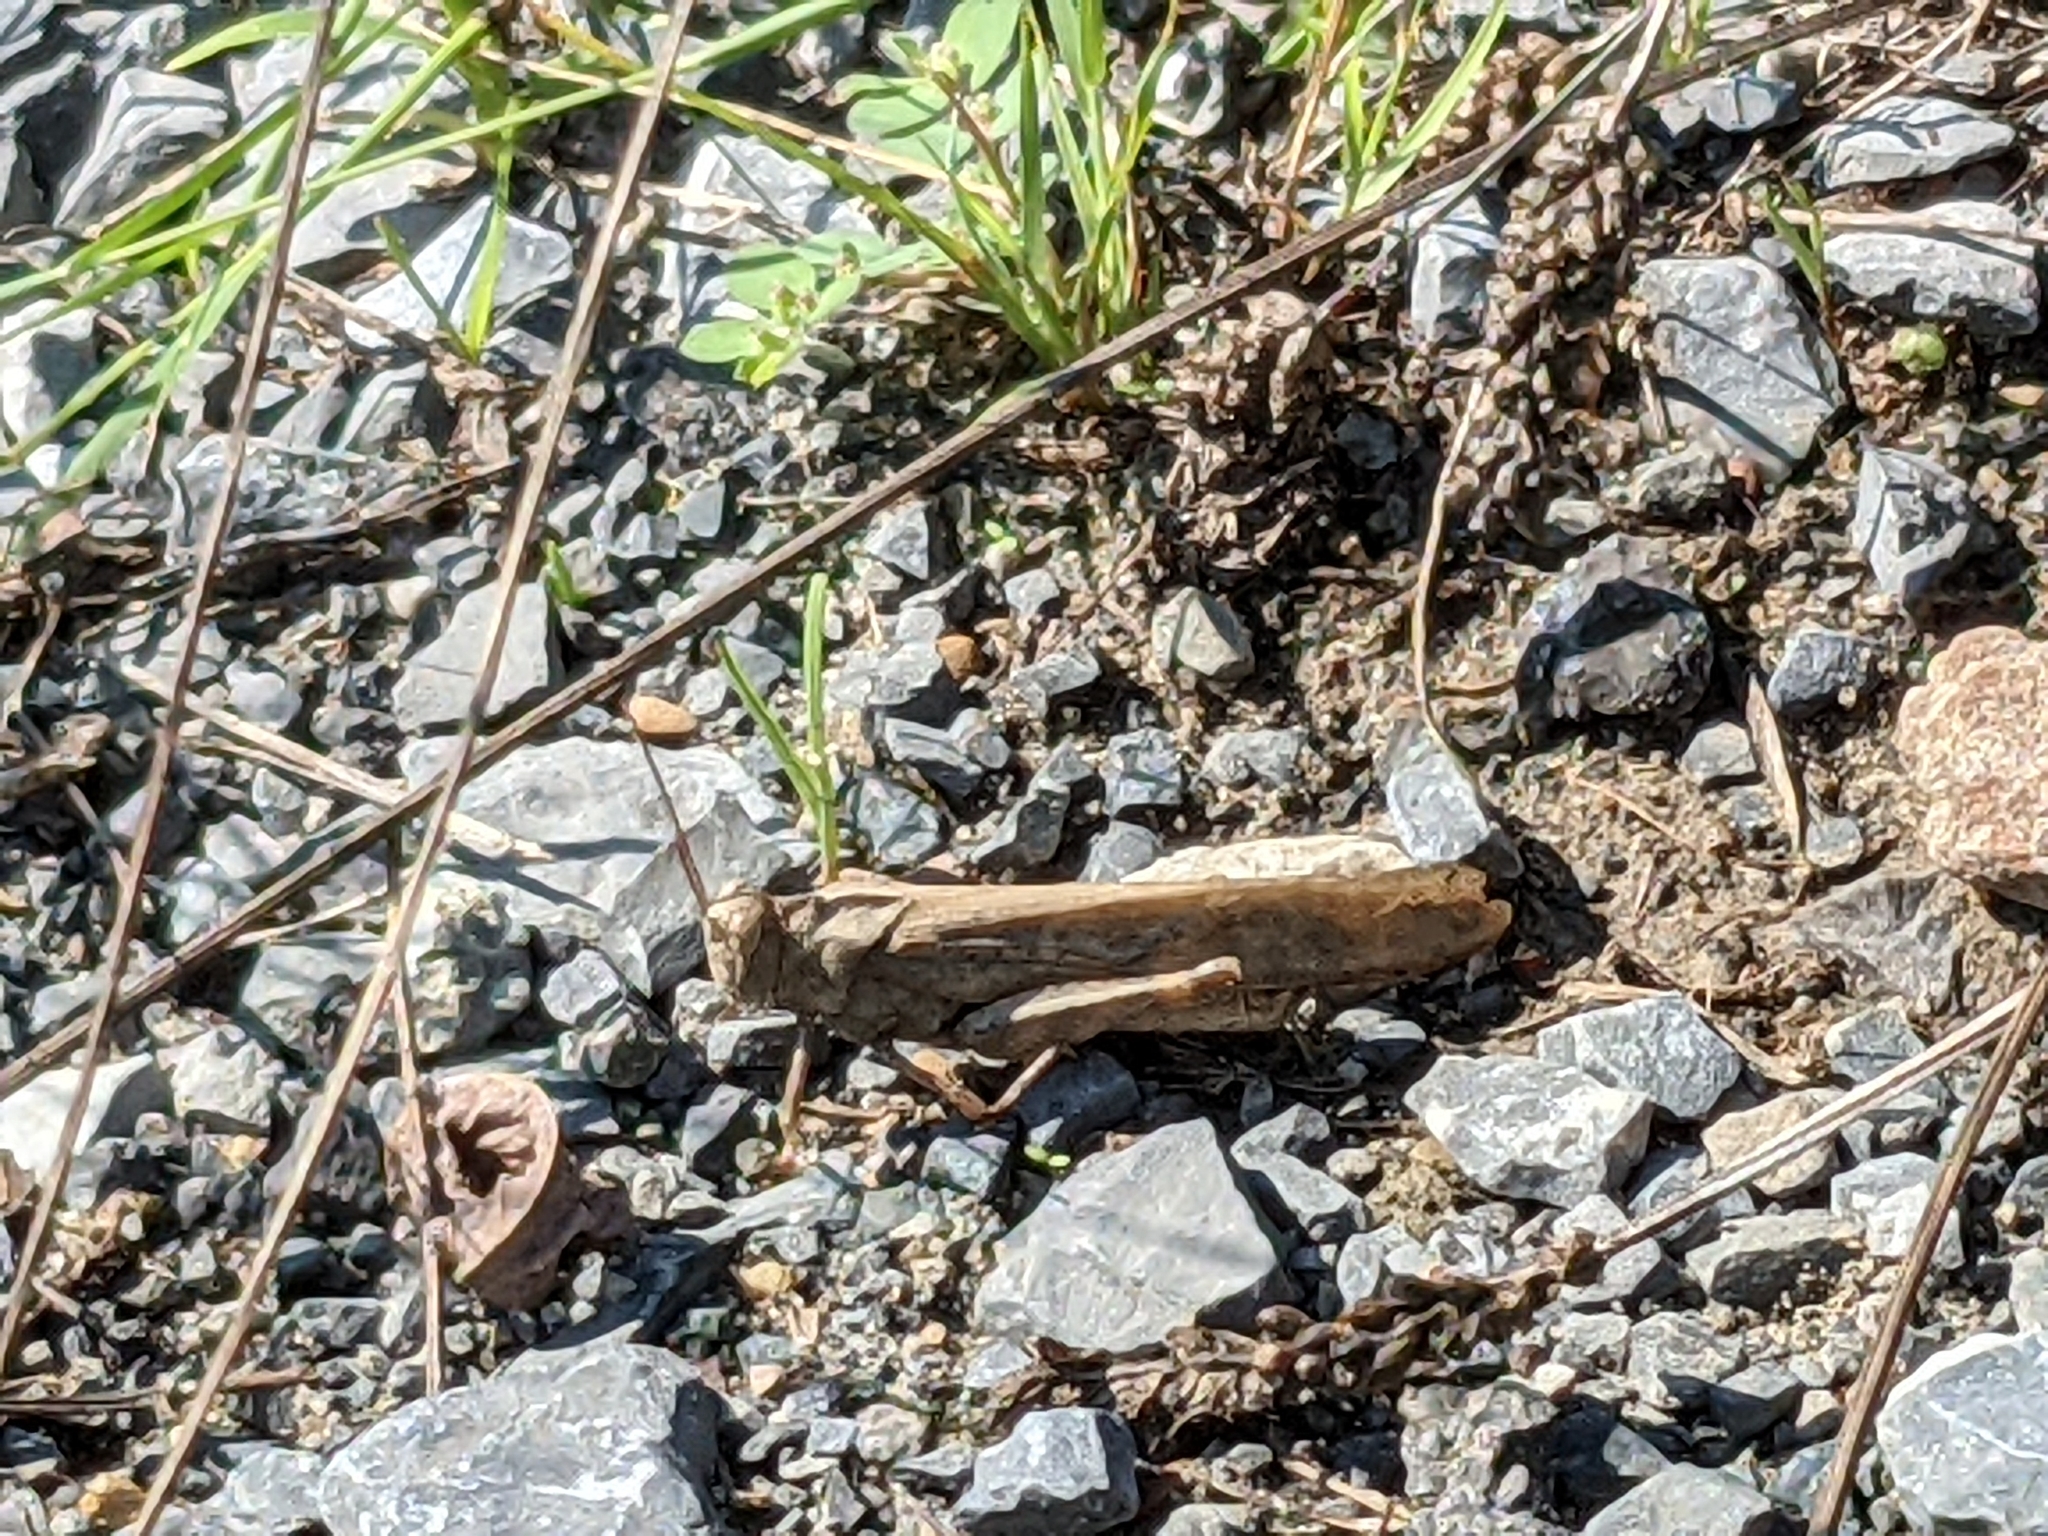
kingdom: Animalia
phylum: Arthropoda
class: Insecta
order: Orthoptera
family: Acrididae
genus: Dissosteira
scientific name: Dissosteira carolina
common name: Carolina grasshopper
